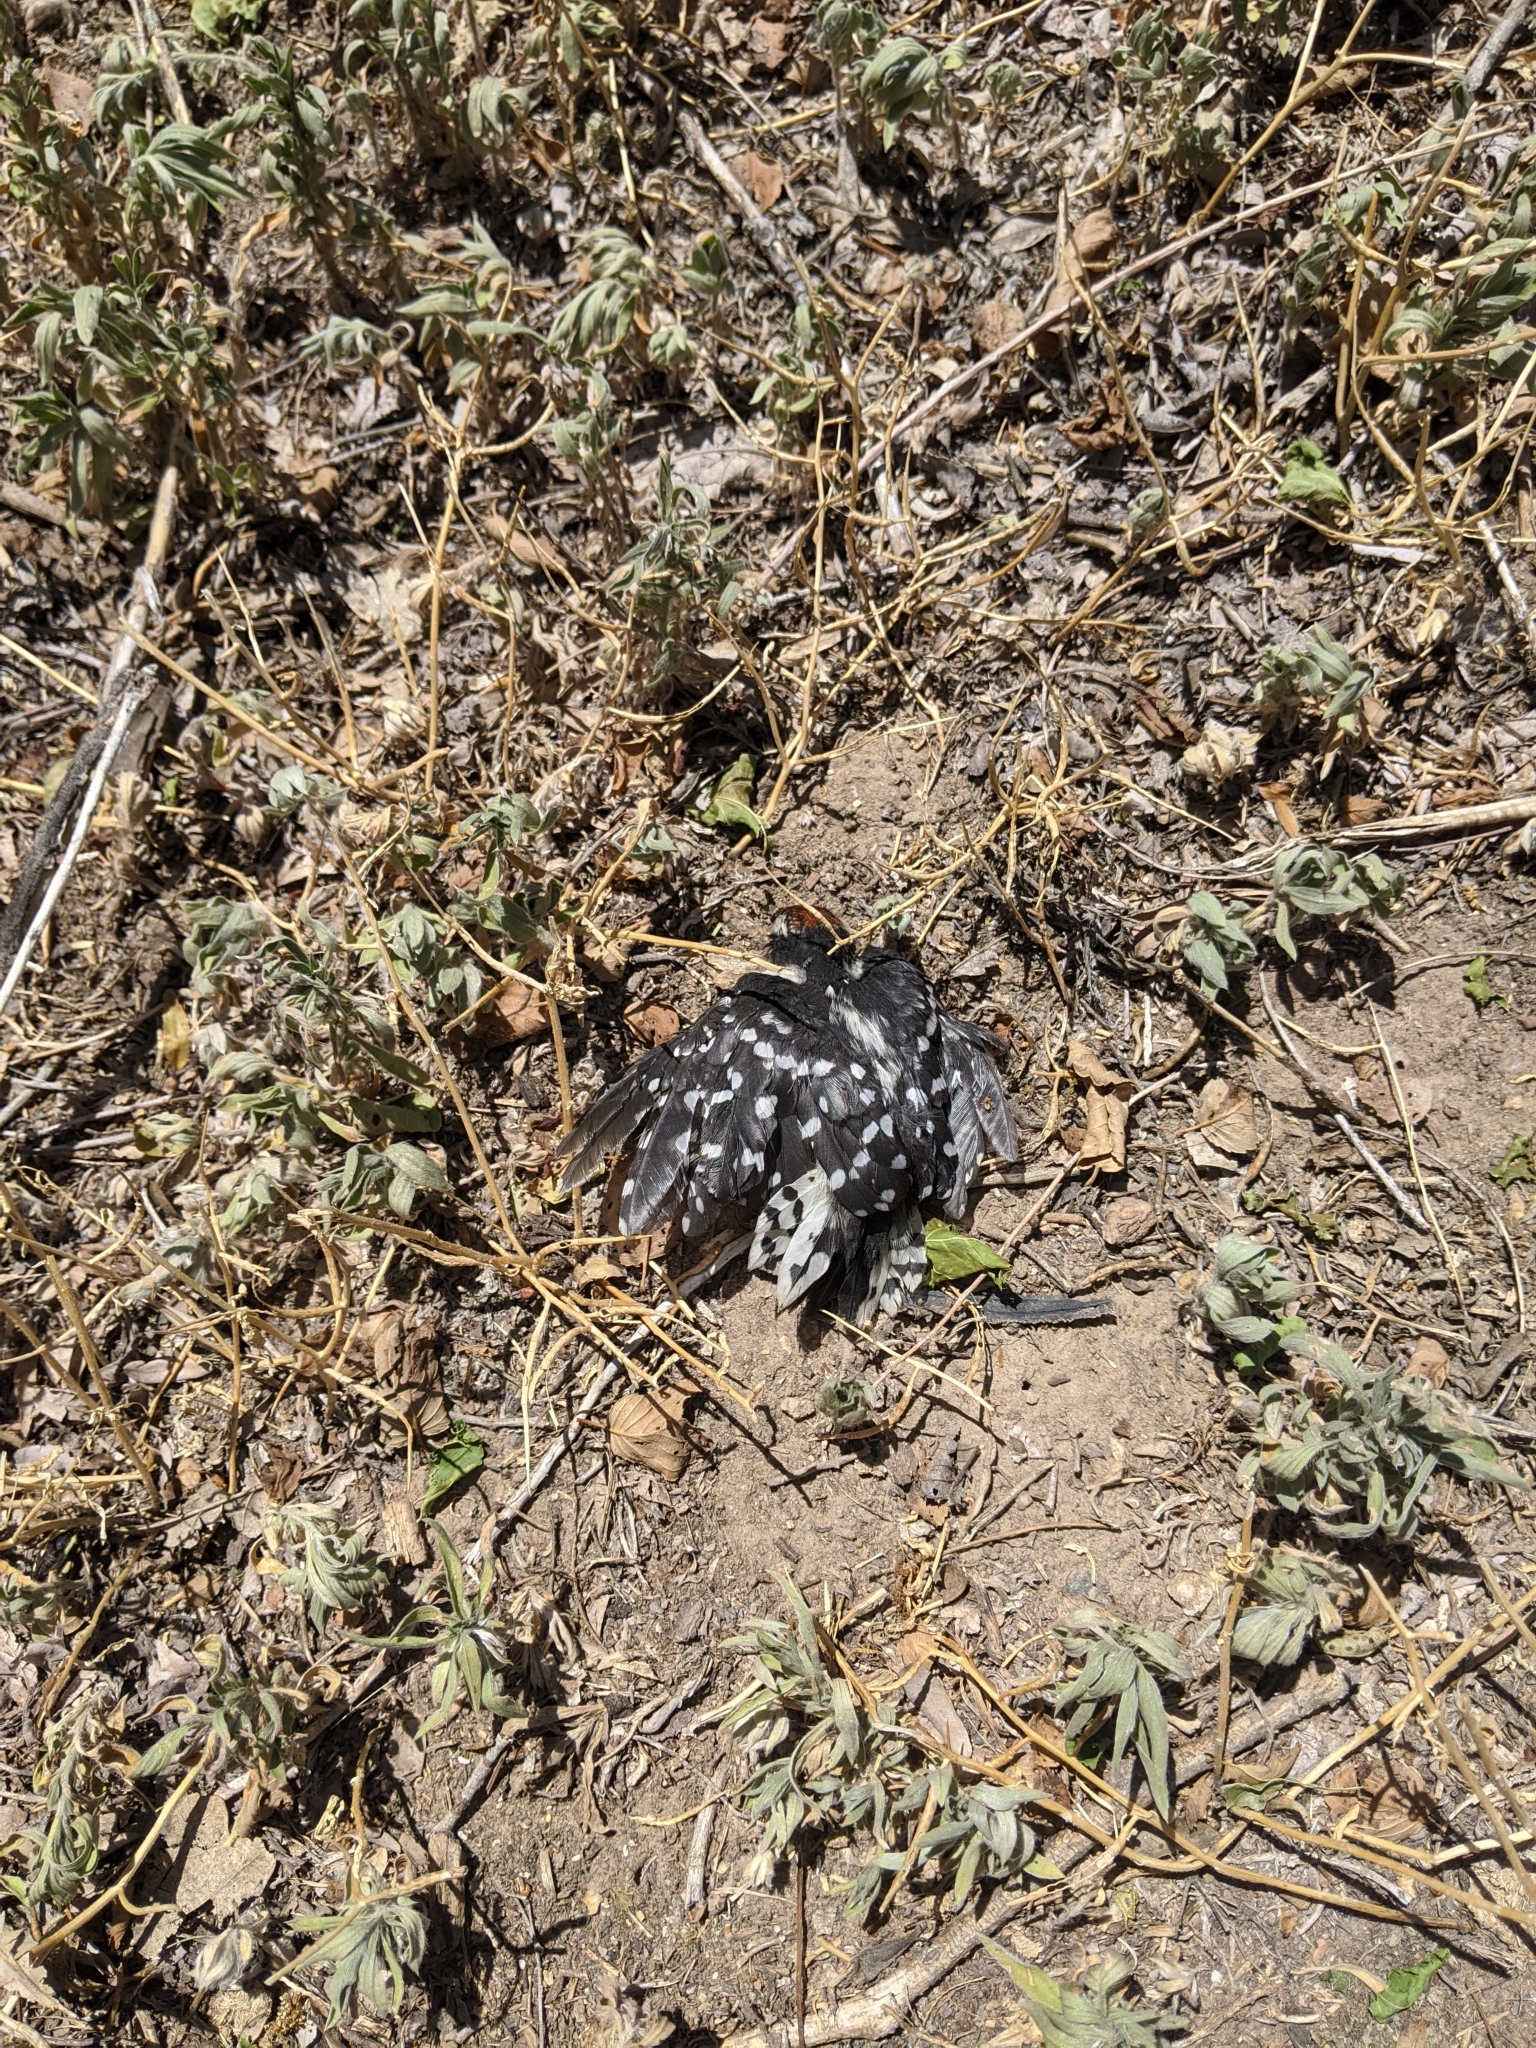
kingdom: Animalia
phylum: Chordata
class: Aves
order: Piciformes
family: Picidae
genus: Dryobates
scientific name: Dryobates pubescens
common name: Downy woodpecker
